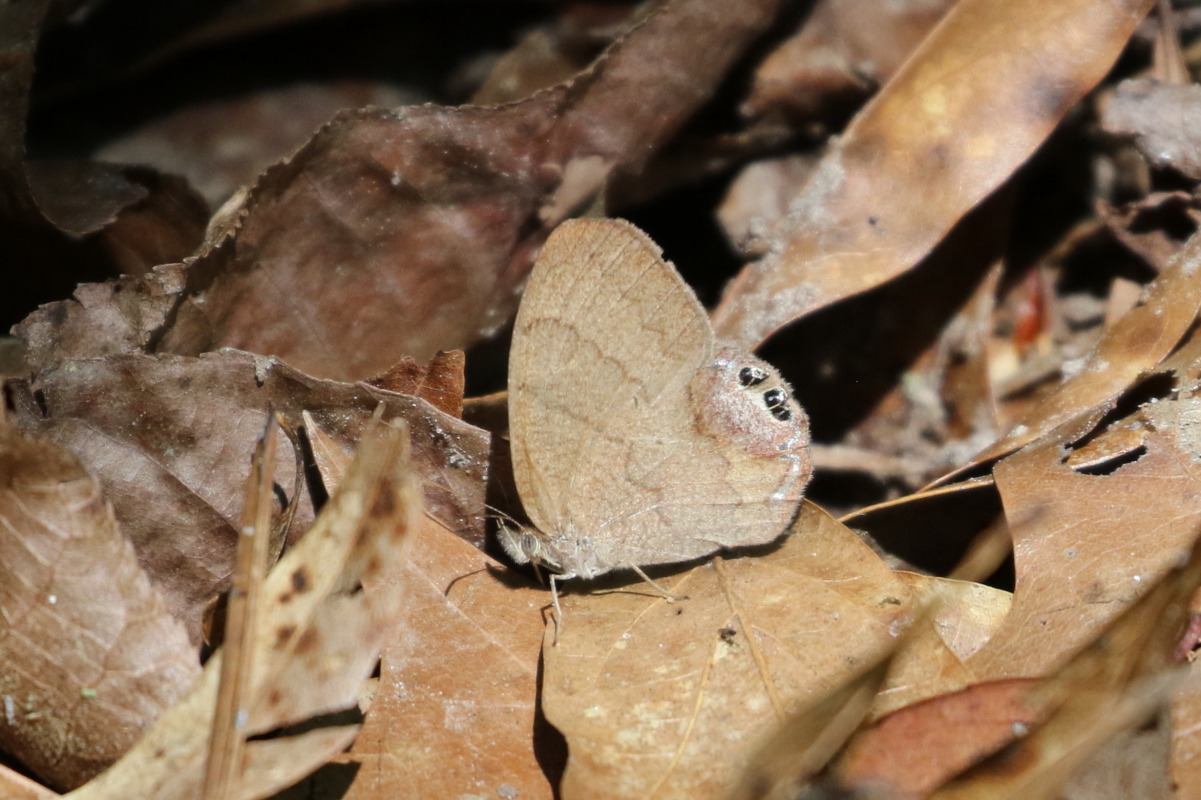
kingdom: Animalia
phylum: Arthropoda
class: Insecta
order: Lepidoptera
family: Nymphalidae
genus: Euptychia
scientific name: Euptychia cornelius
